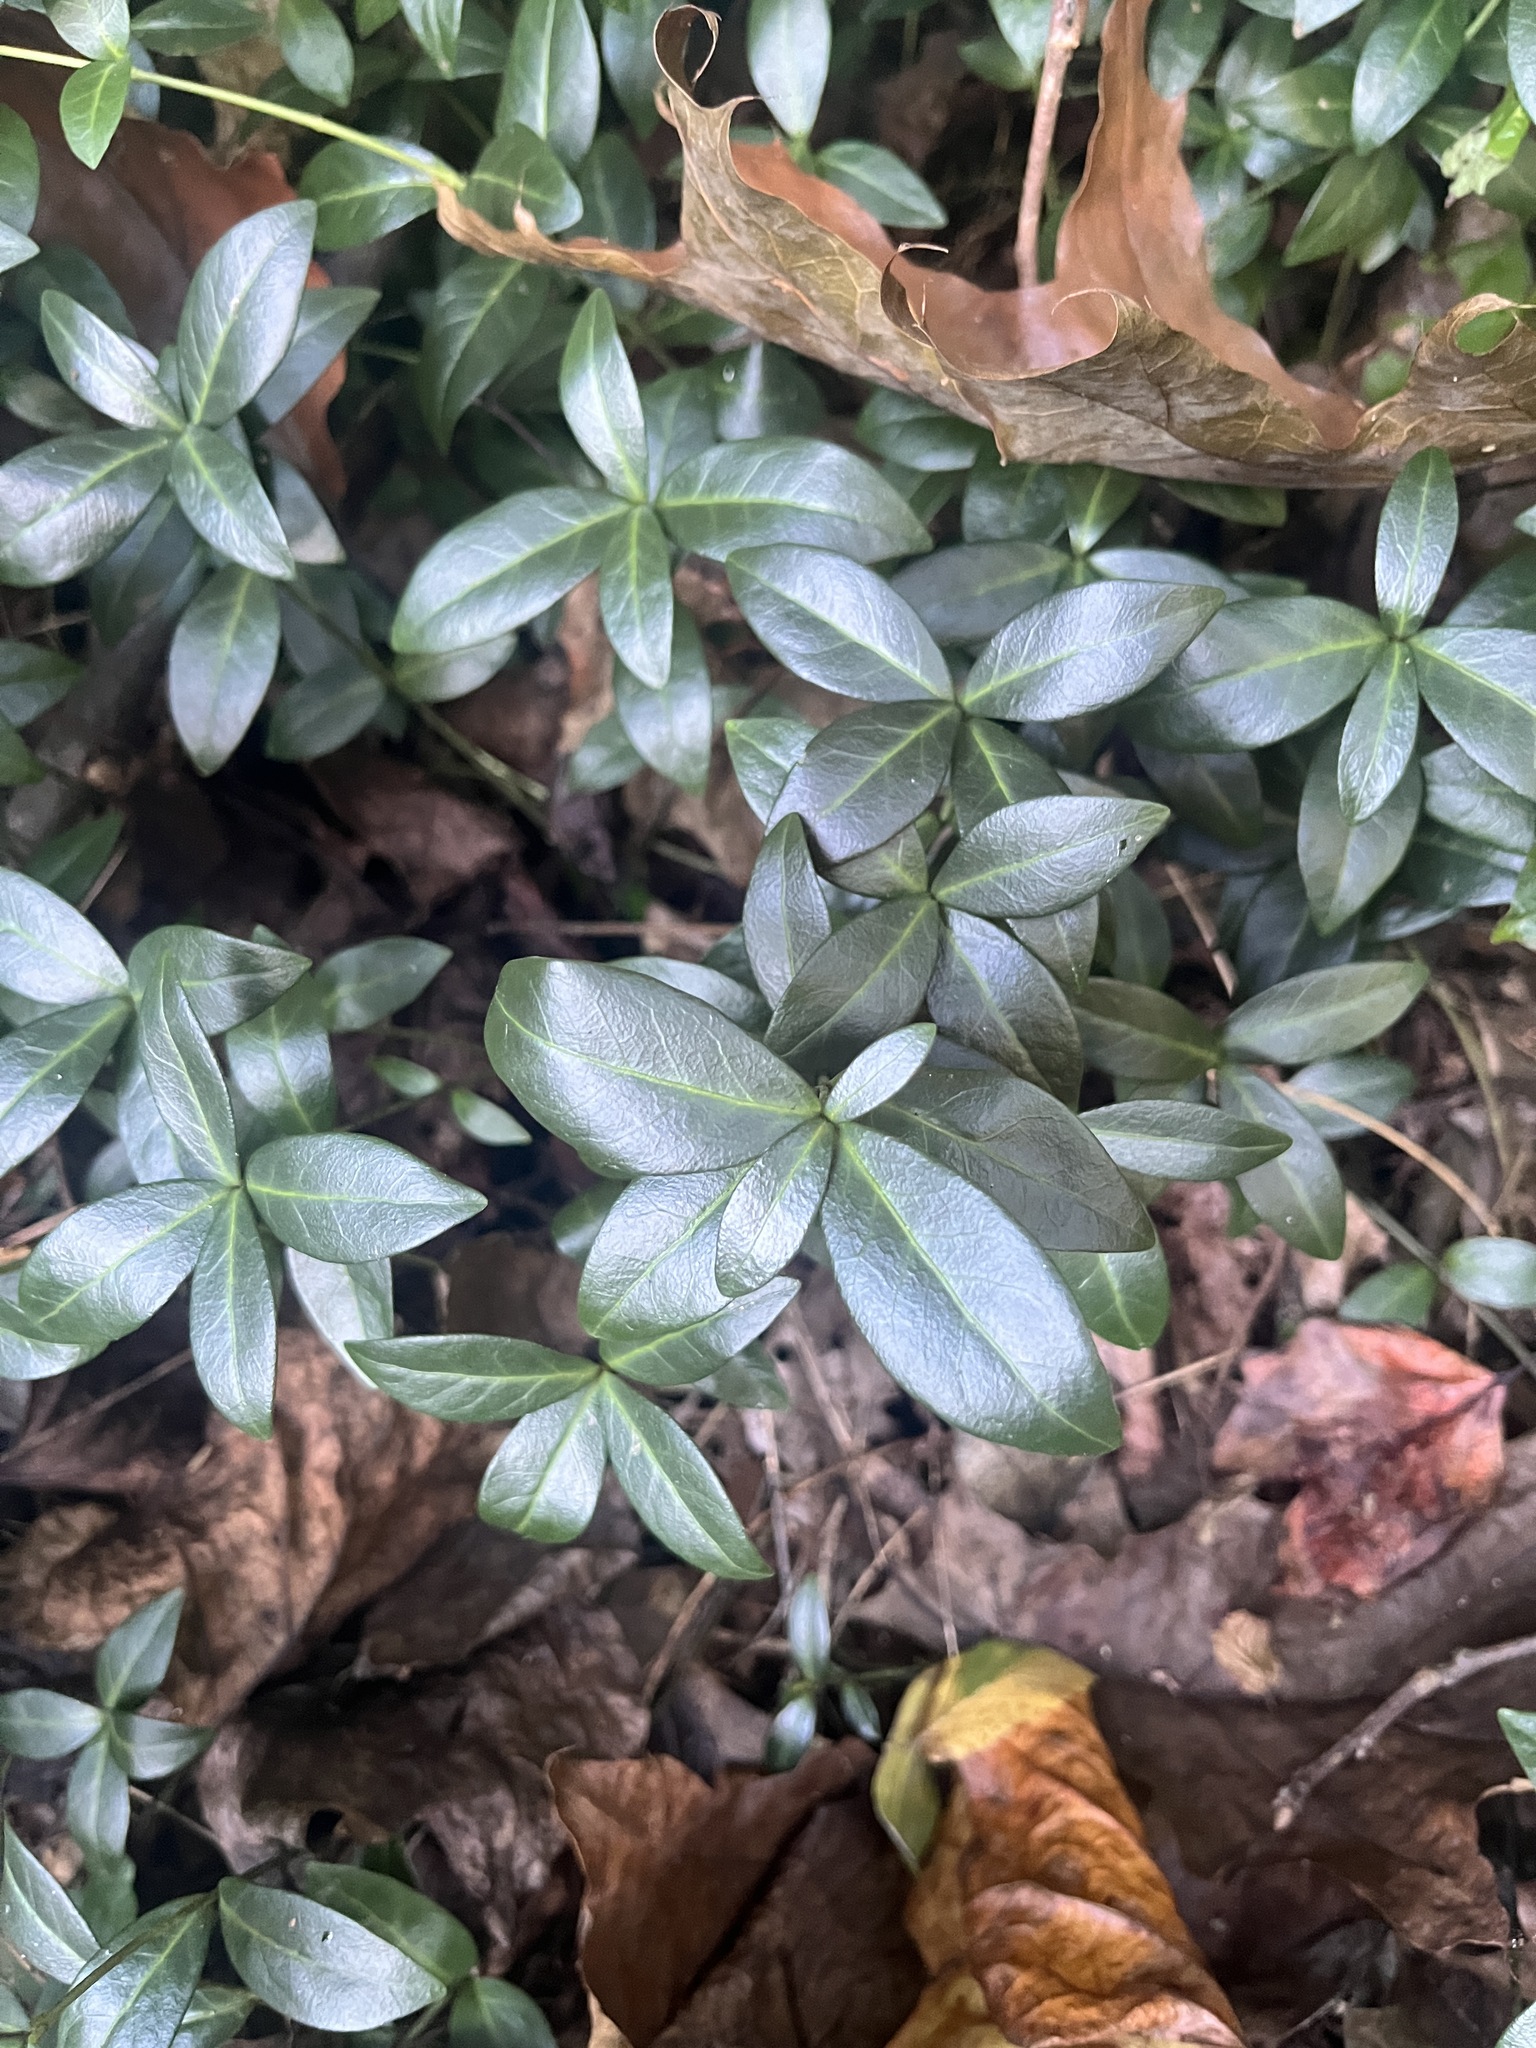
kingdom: Plantae
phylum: Tracheophyta
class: Magnoliopsida
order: Gentianales
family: Apocynaceae
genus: Vinca
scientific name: Vinca minor
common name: Lesser periwinkle
